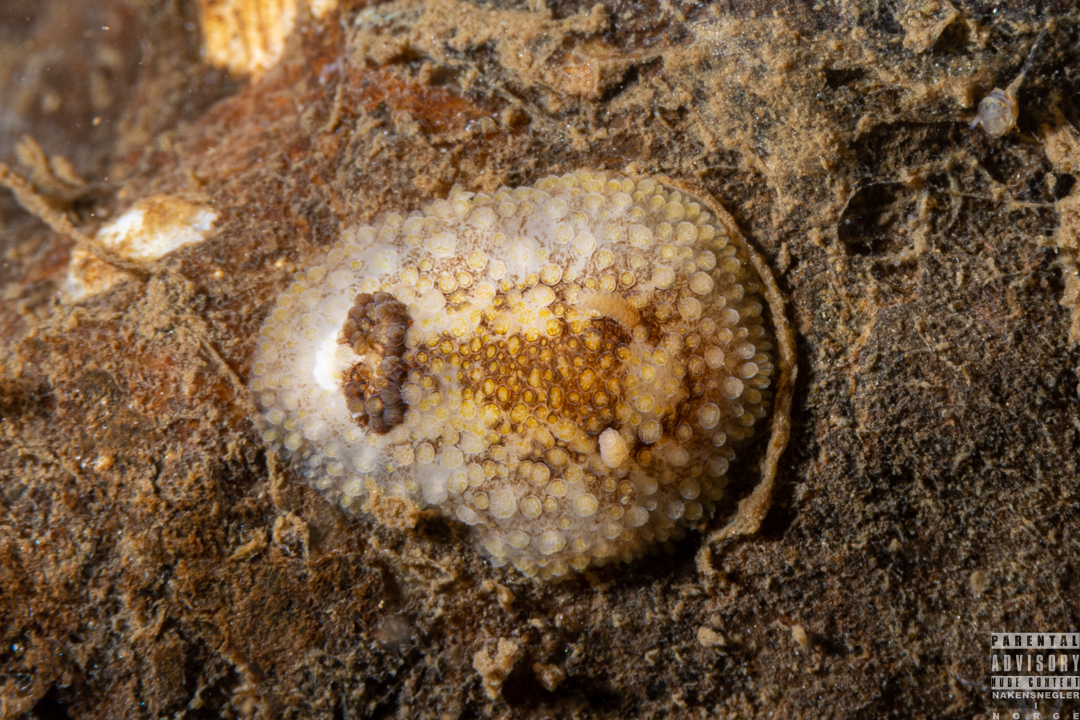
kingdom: Animalia
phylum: Mollusca
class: Gastropoda
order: Nudibranchia
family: Onchidorididae
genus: Onchidoris
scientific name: Onchidoris bilamellata
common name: Barnacle-eating onchidoris
